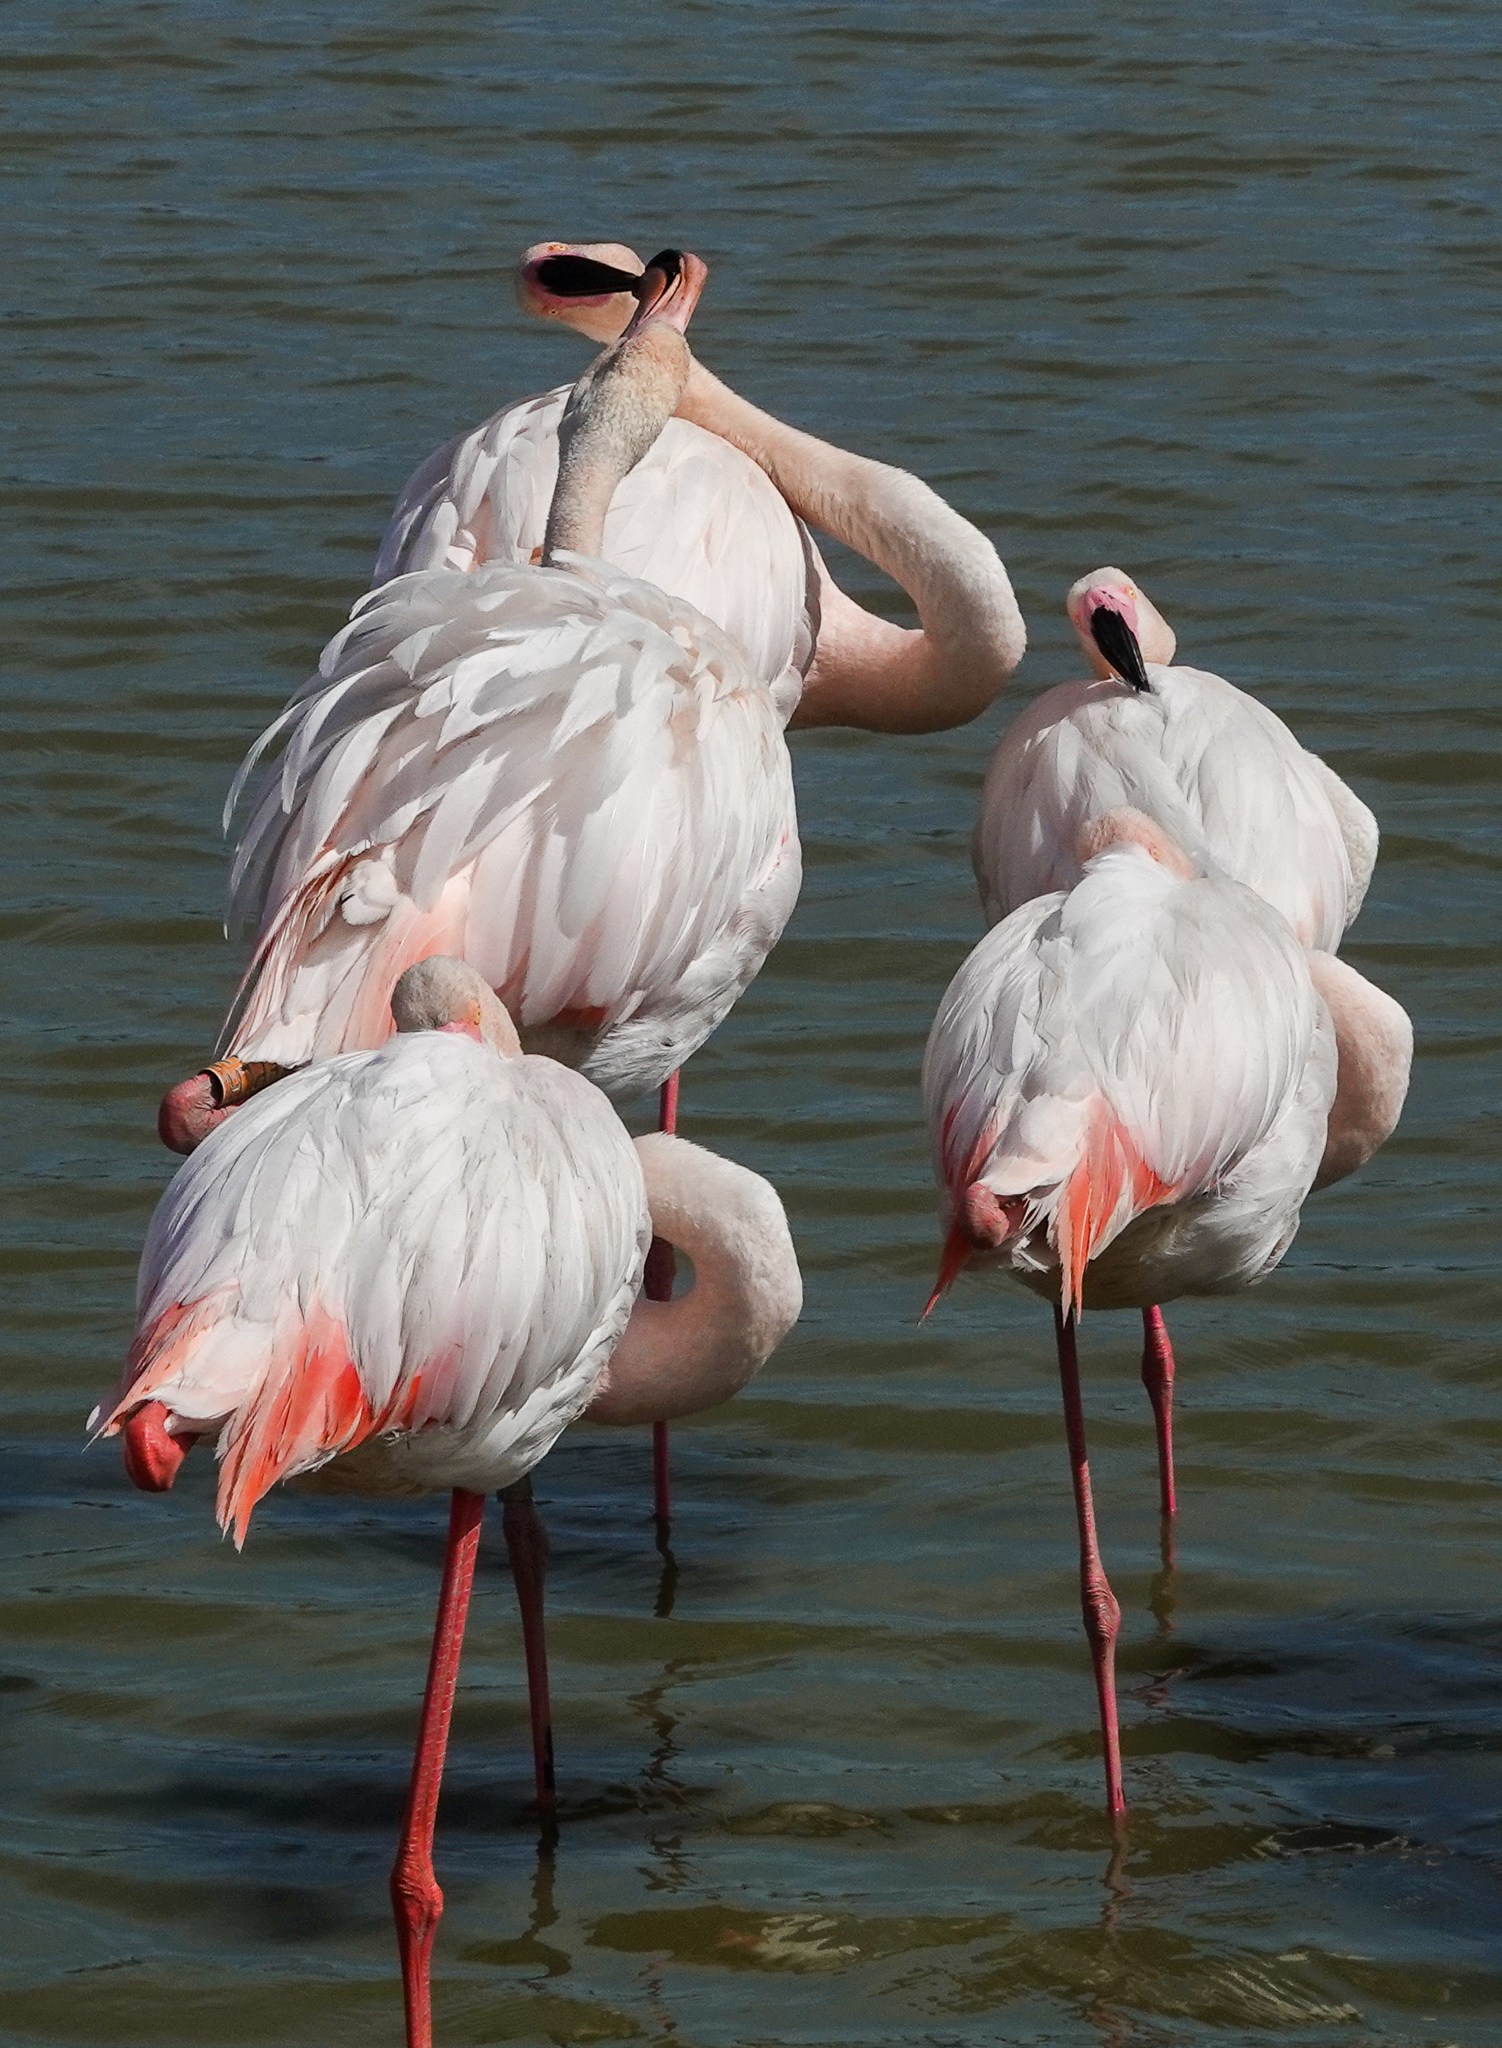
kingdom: Animalia
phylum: Chordata
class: Aves
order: Phoenicopteriformes
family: Phoenicopteridae
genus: Phoenicopterus
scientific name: Phoenicopterus roseus
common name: Greater flamingo
